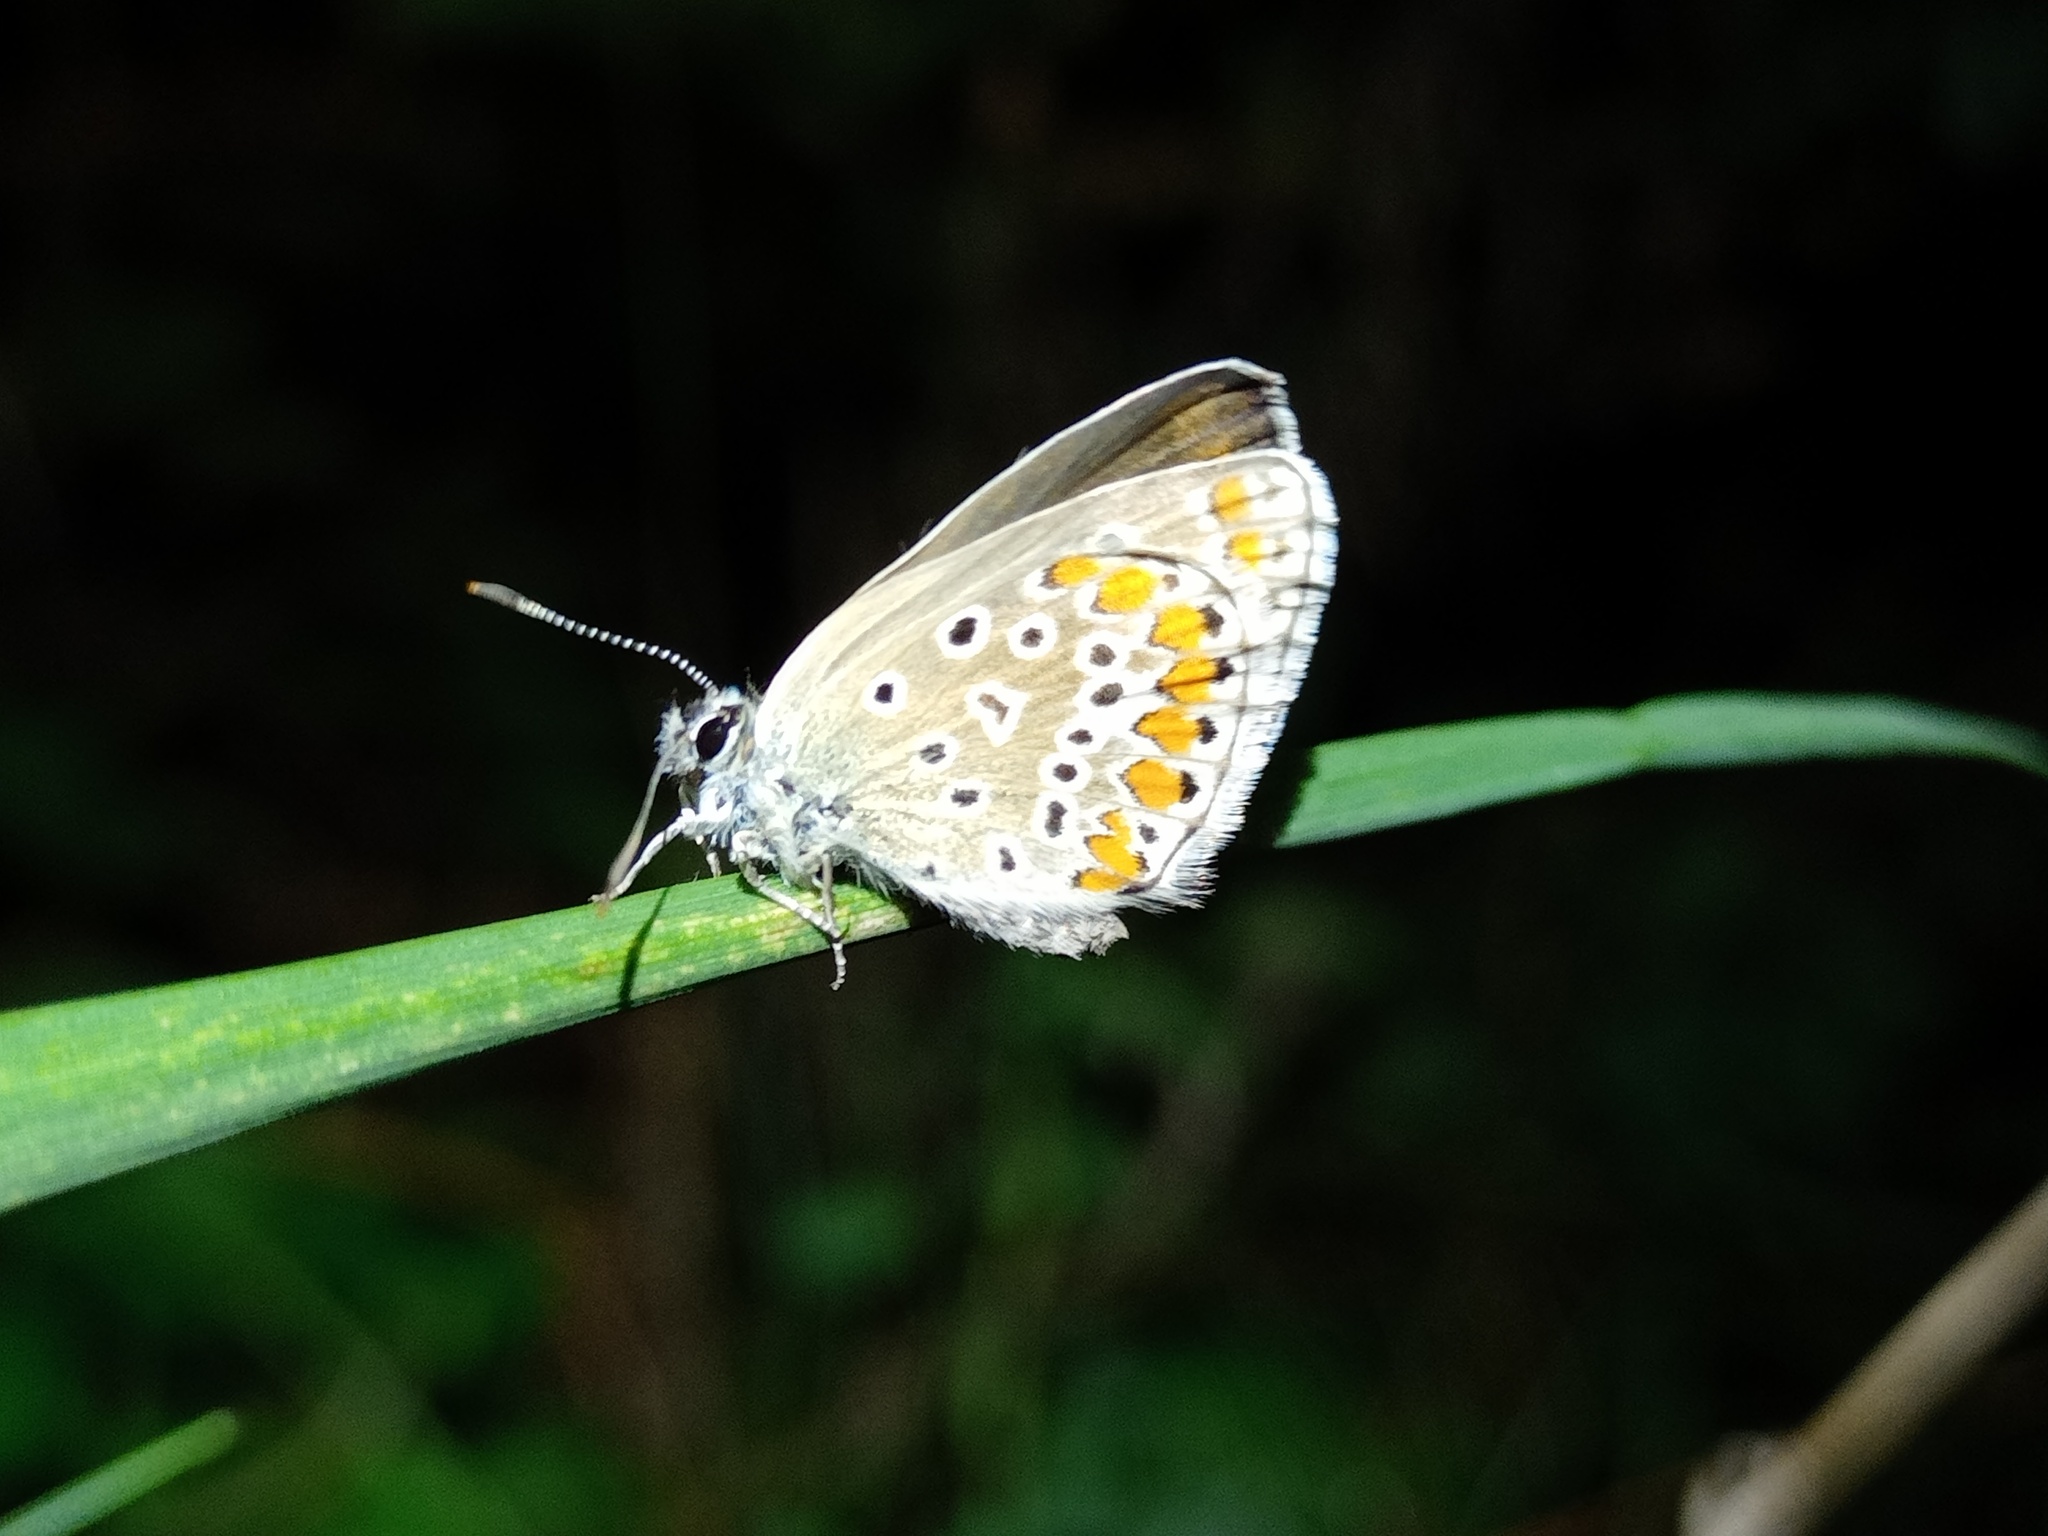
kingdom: Animalia
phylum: Arthropoda
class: Insecta
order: Lepidoptera
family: Lycaenidae
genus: Polyommatus
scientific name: Polyommatus icarus
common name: Common blue
